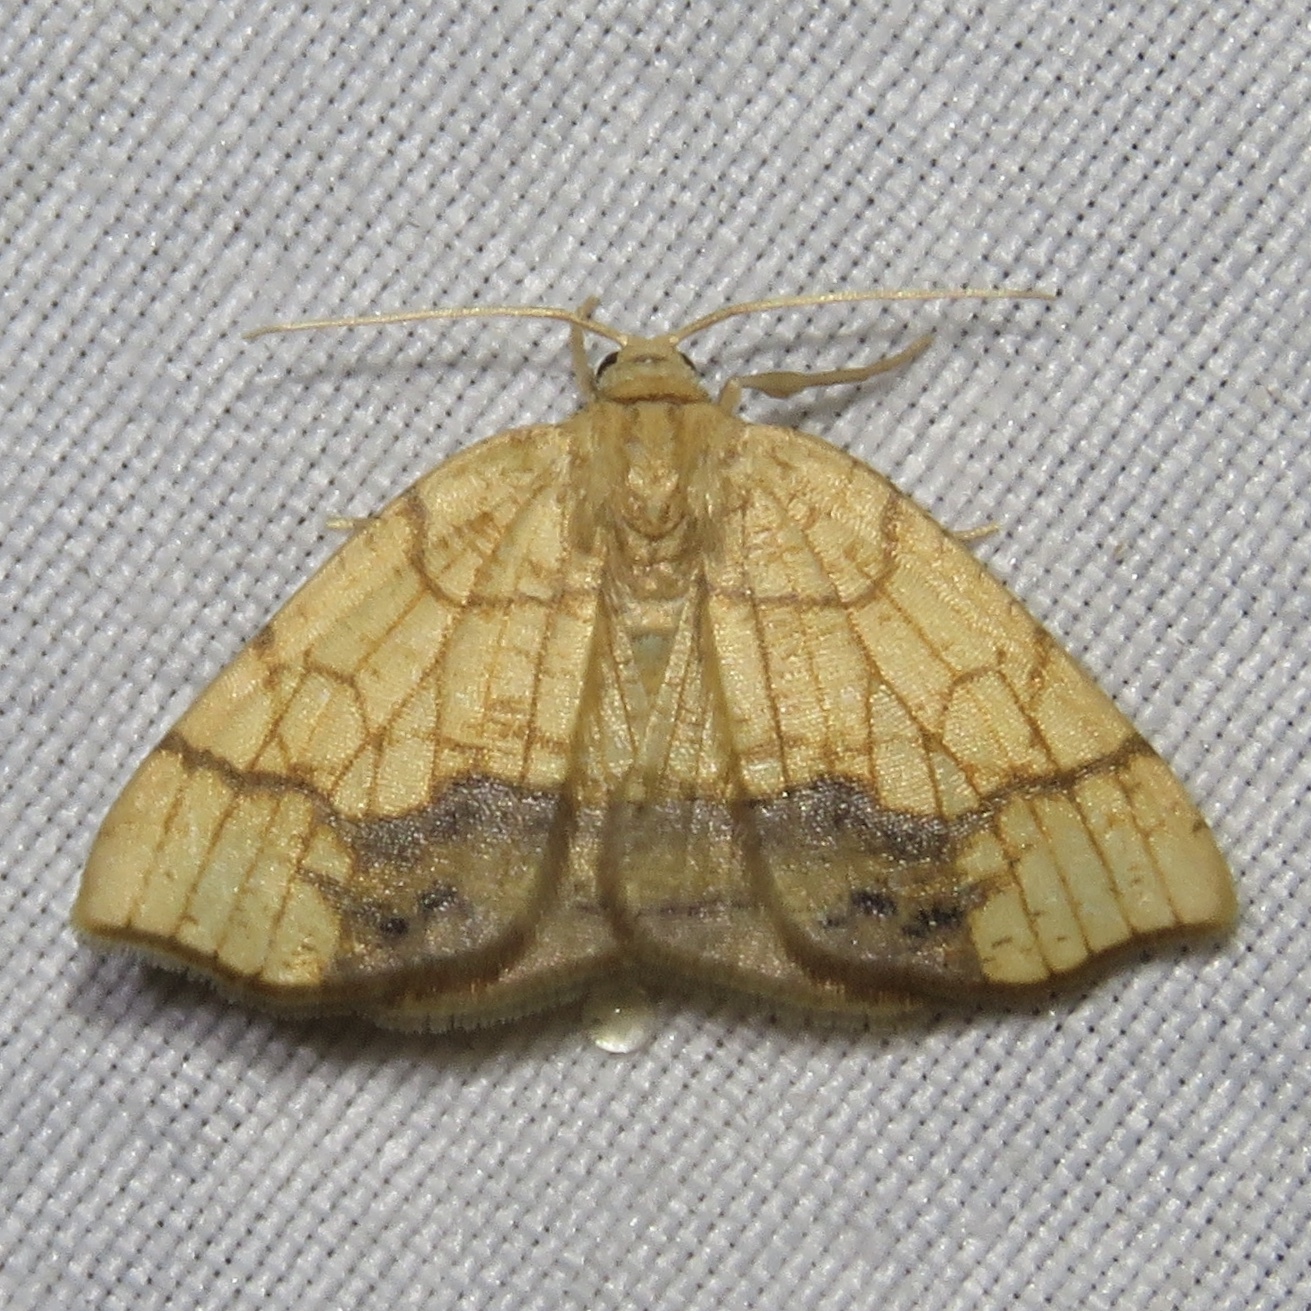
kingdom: Animalia
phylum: Arthropoda
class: Insecta
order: Lepidoptera
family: Geometridae
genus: Nematocampa
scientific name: Nematocampa resistaria
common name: Horned spanworm moth
